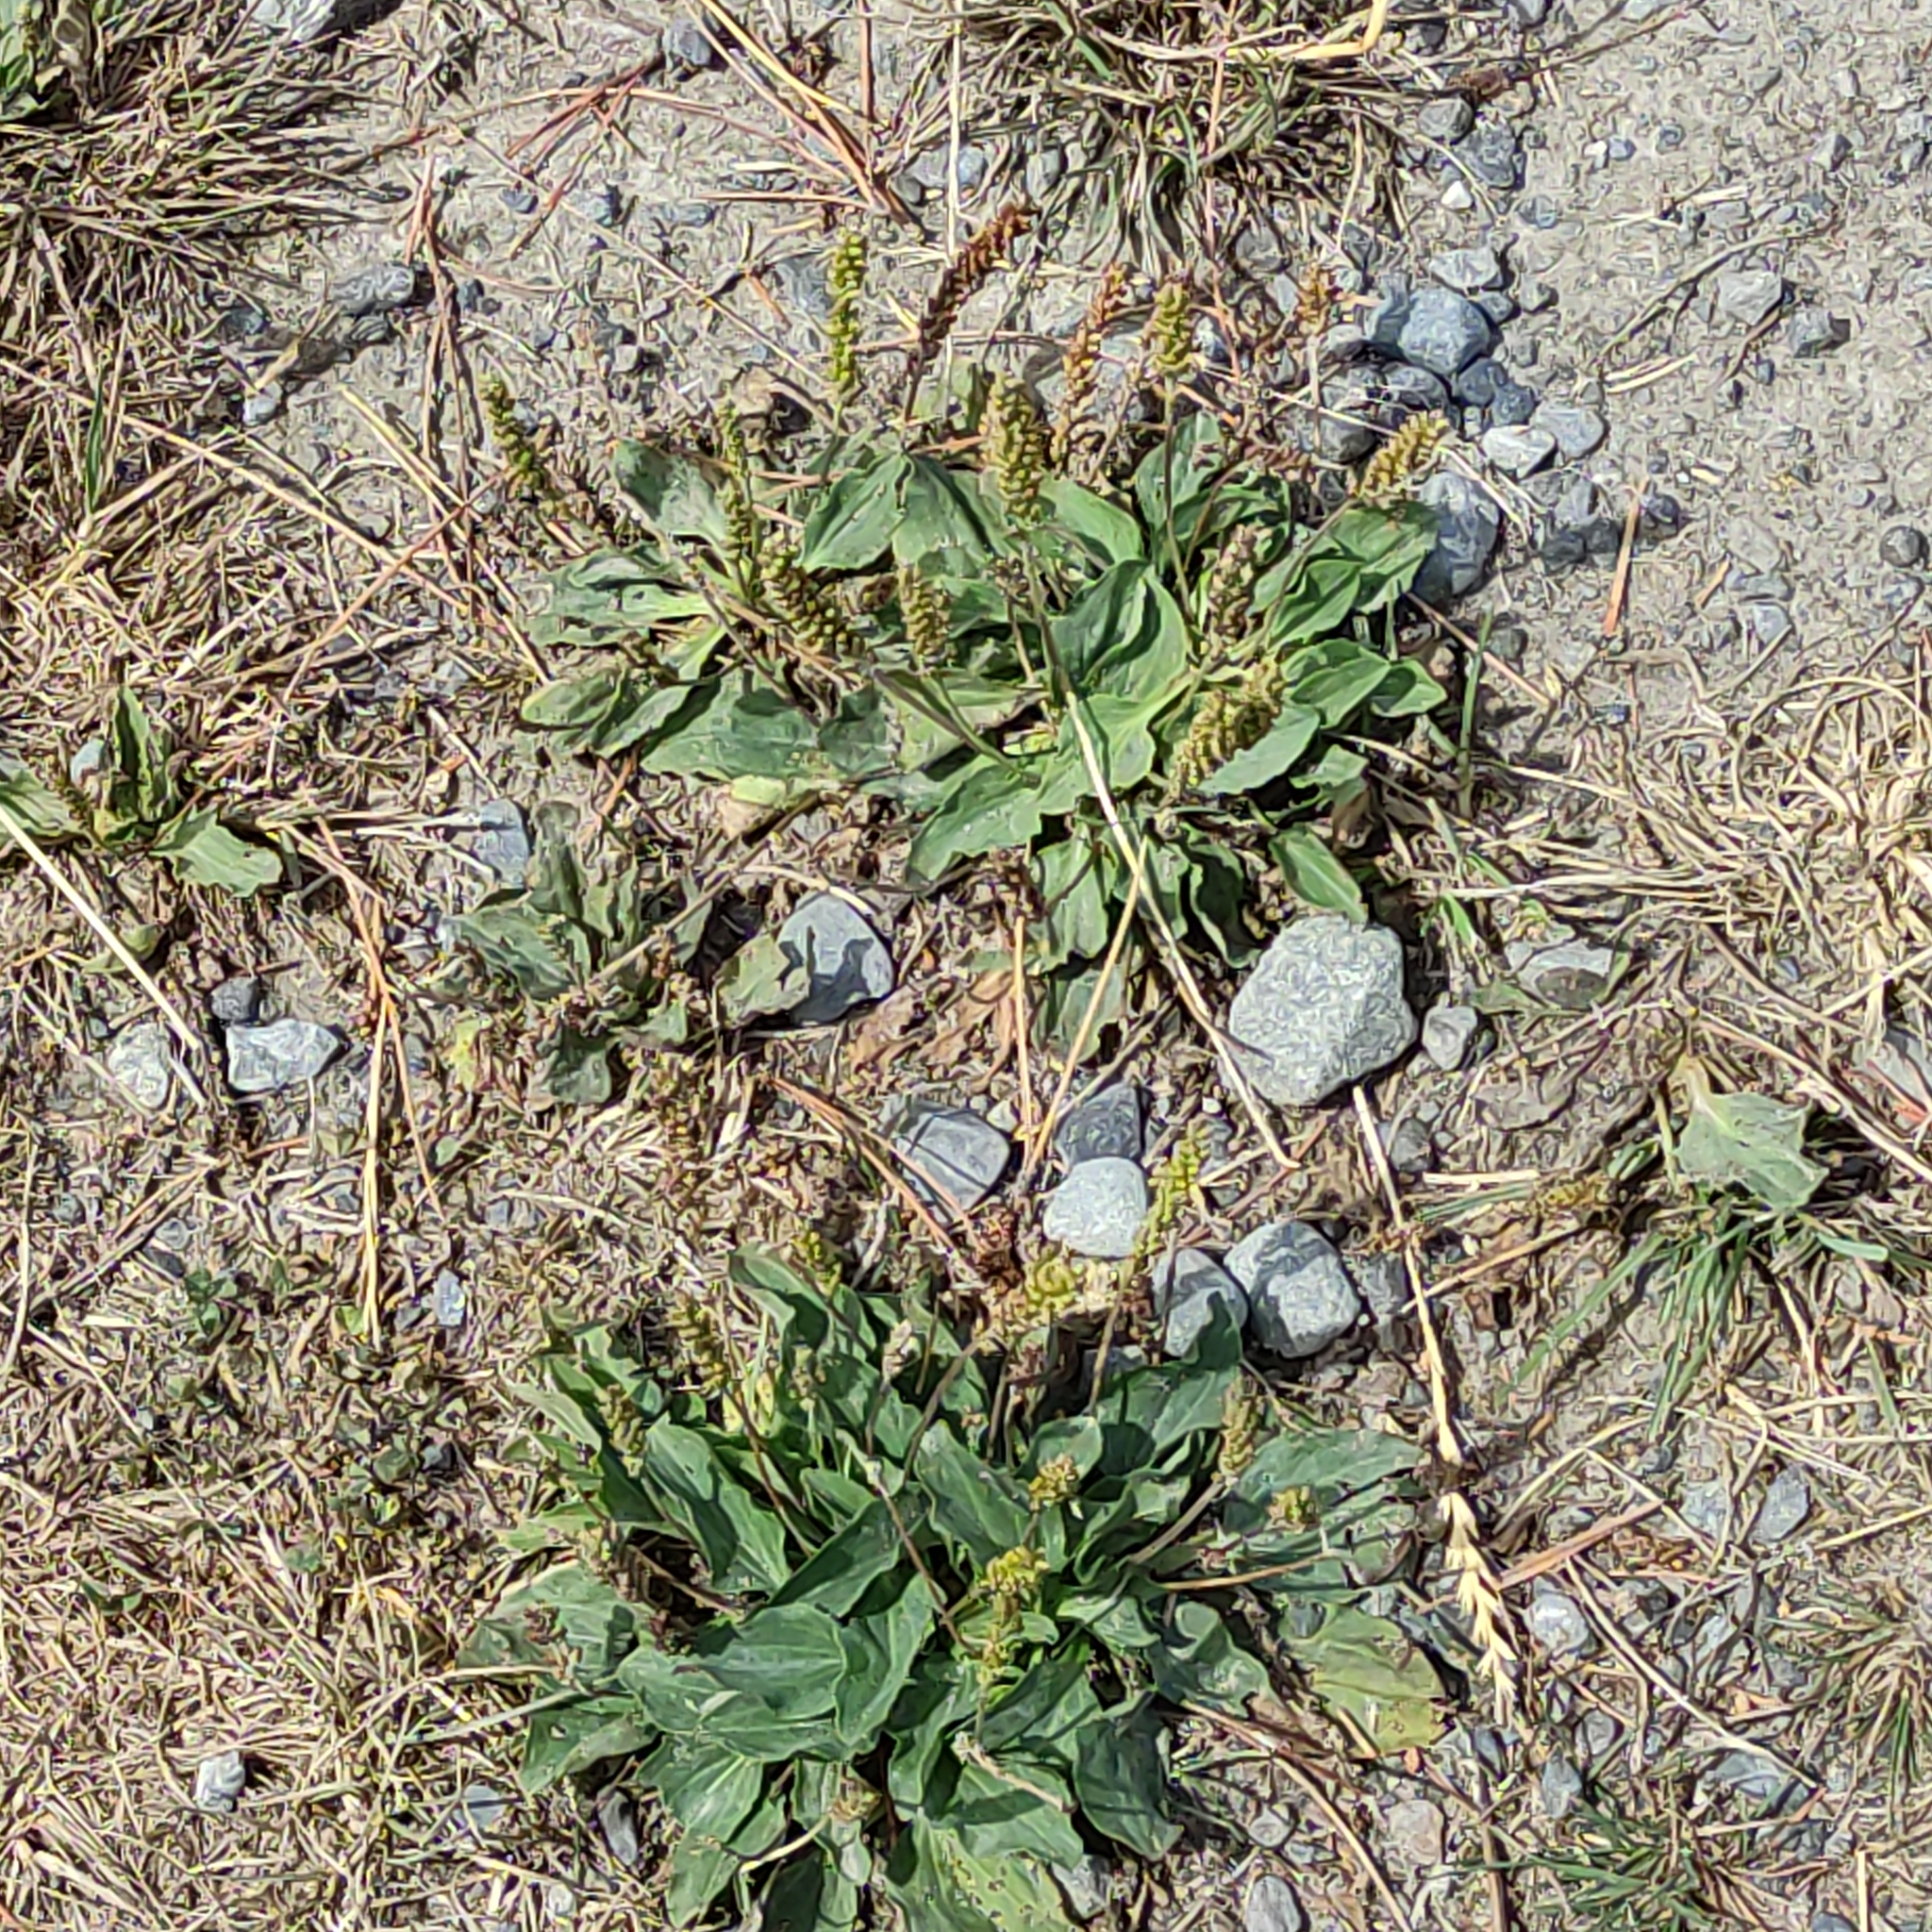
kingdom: Plantae
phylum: Tracheophyta
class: Magnoliopsida
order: Lamiales
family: Plantaginaceae
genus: Plantago
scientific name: Plantago major
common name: Common plantain
